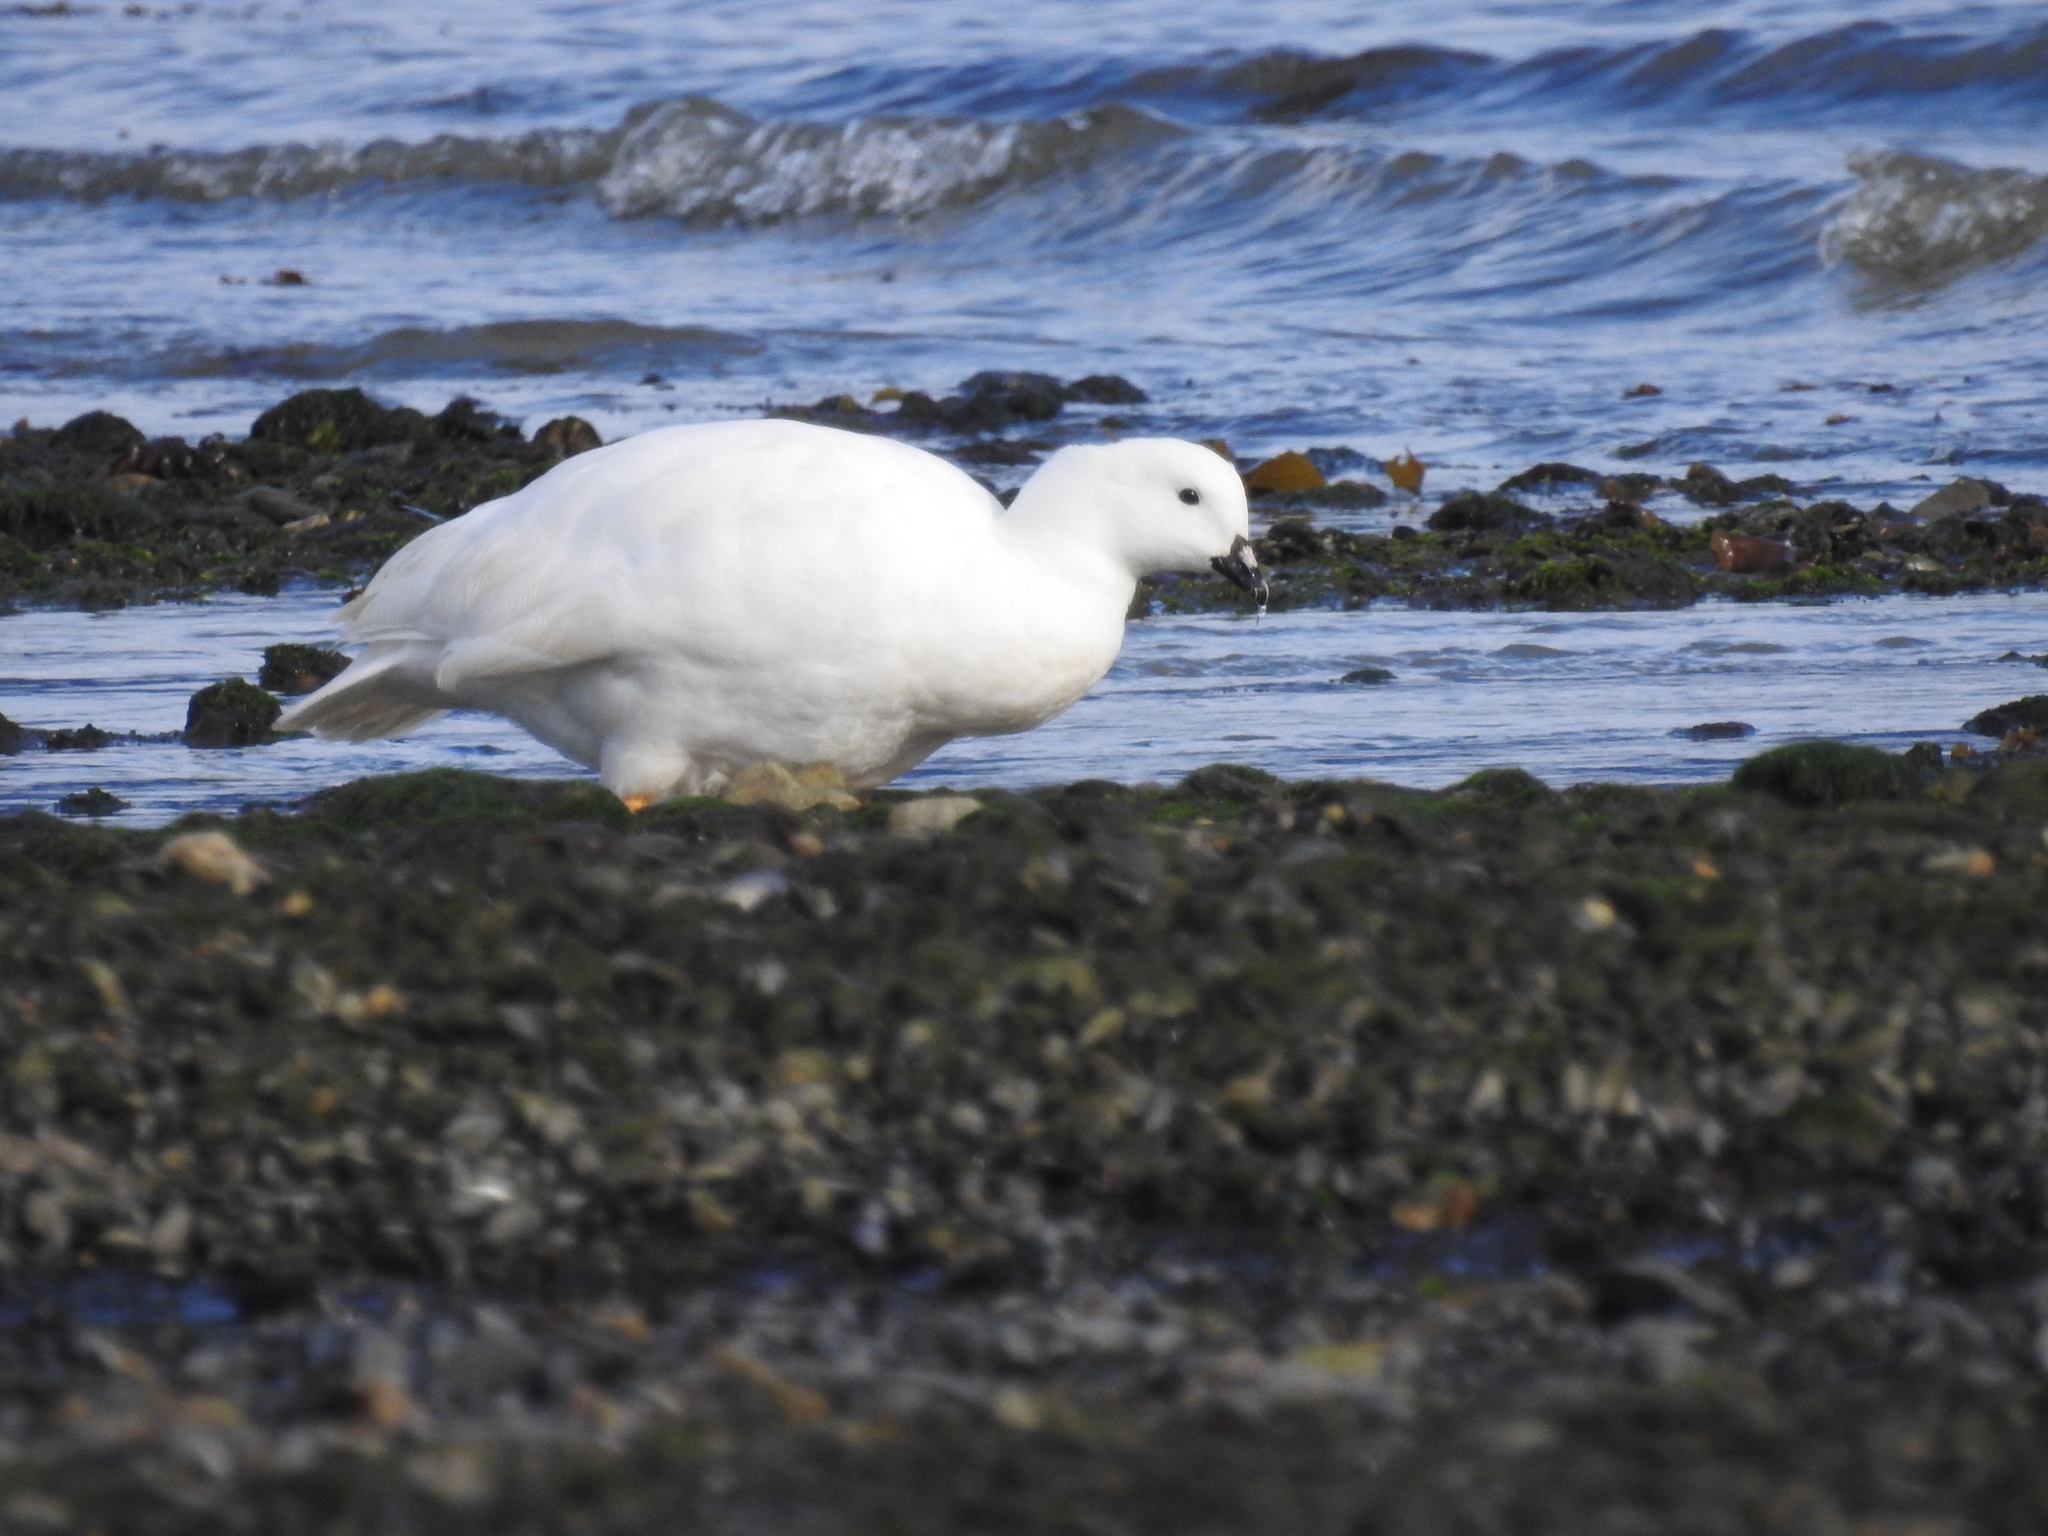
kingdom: Animalia
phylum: Chordata
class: Aves
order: Anseriformes
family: Anatidae
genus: Chloephaga
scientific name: Chloephaga hybrida
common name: Kelp goose
